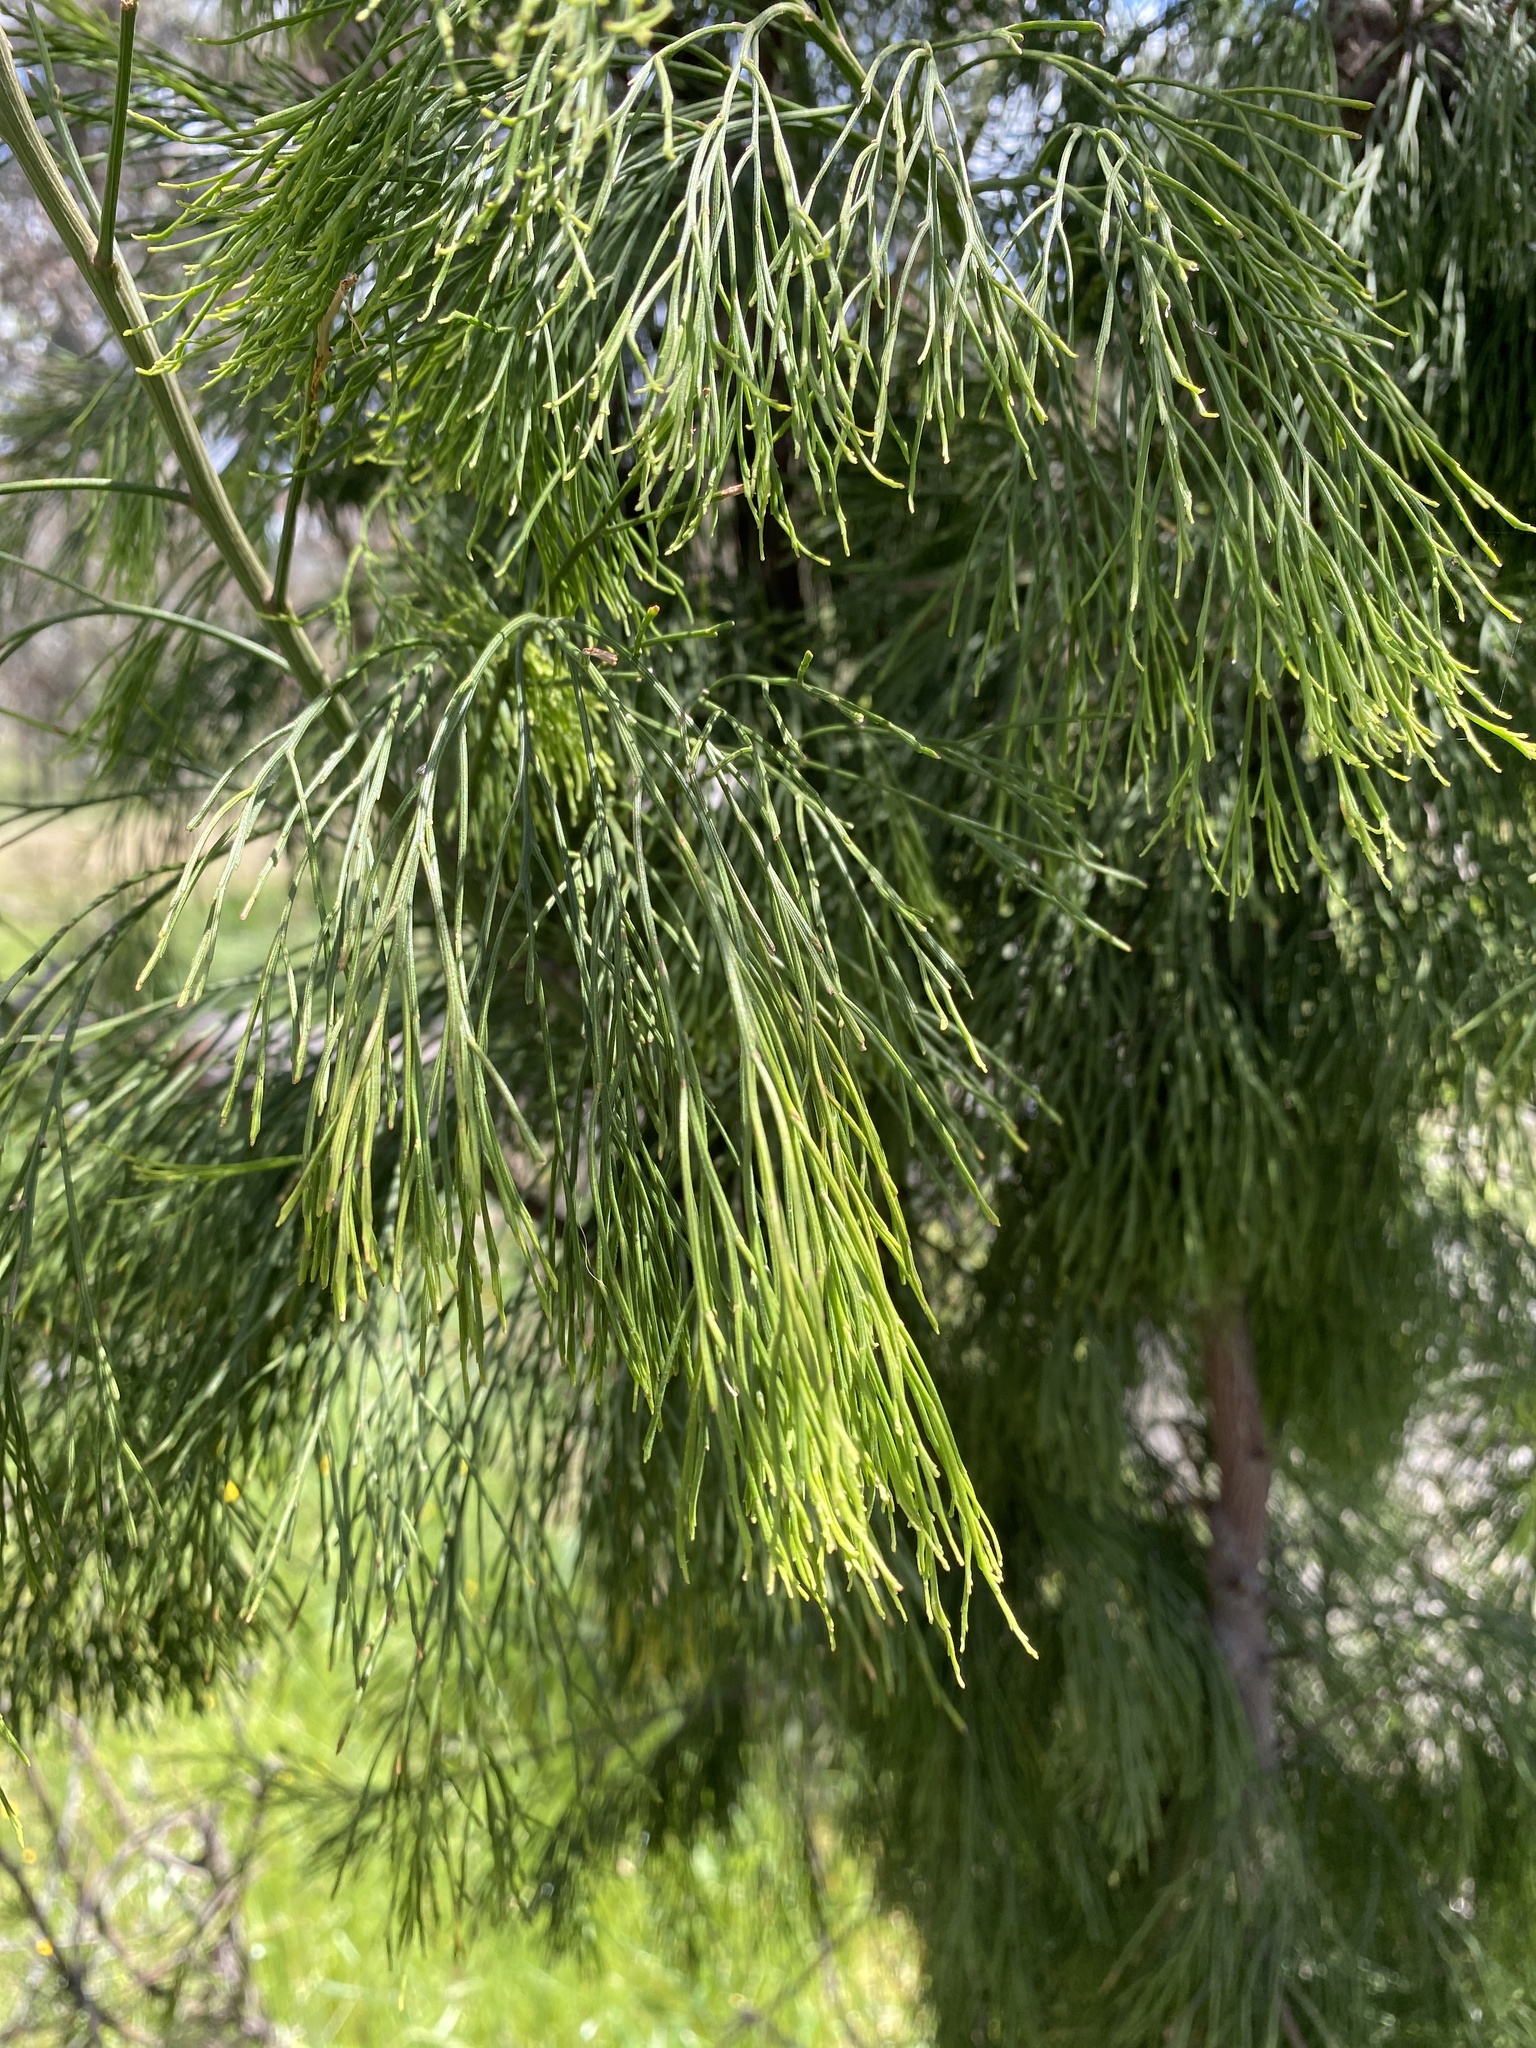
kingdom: Plantae
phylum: Tracheophyta
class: Magnoliopsida
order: Santalales
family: Santalaceae
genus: Exocarpos
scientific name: Exocarpos cupressiformis
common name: Cherry ballart
